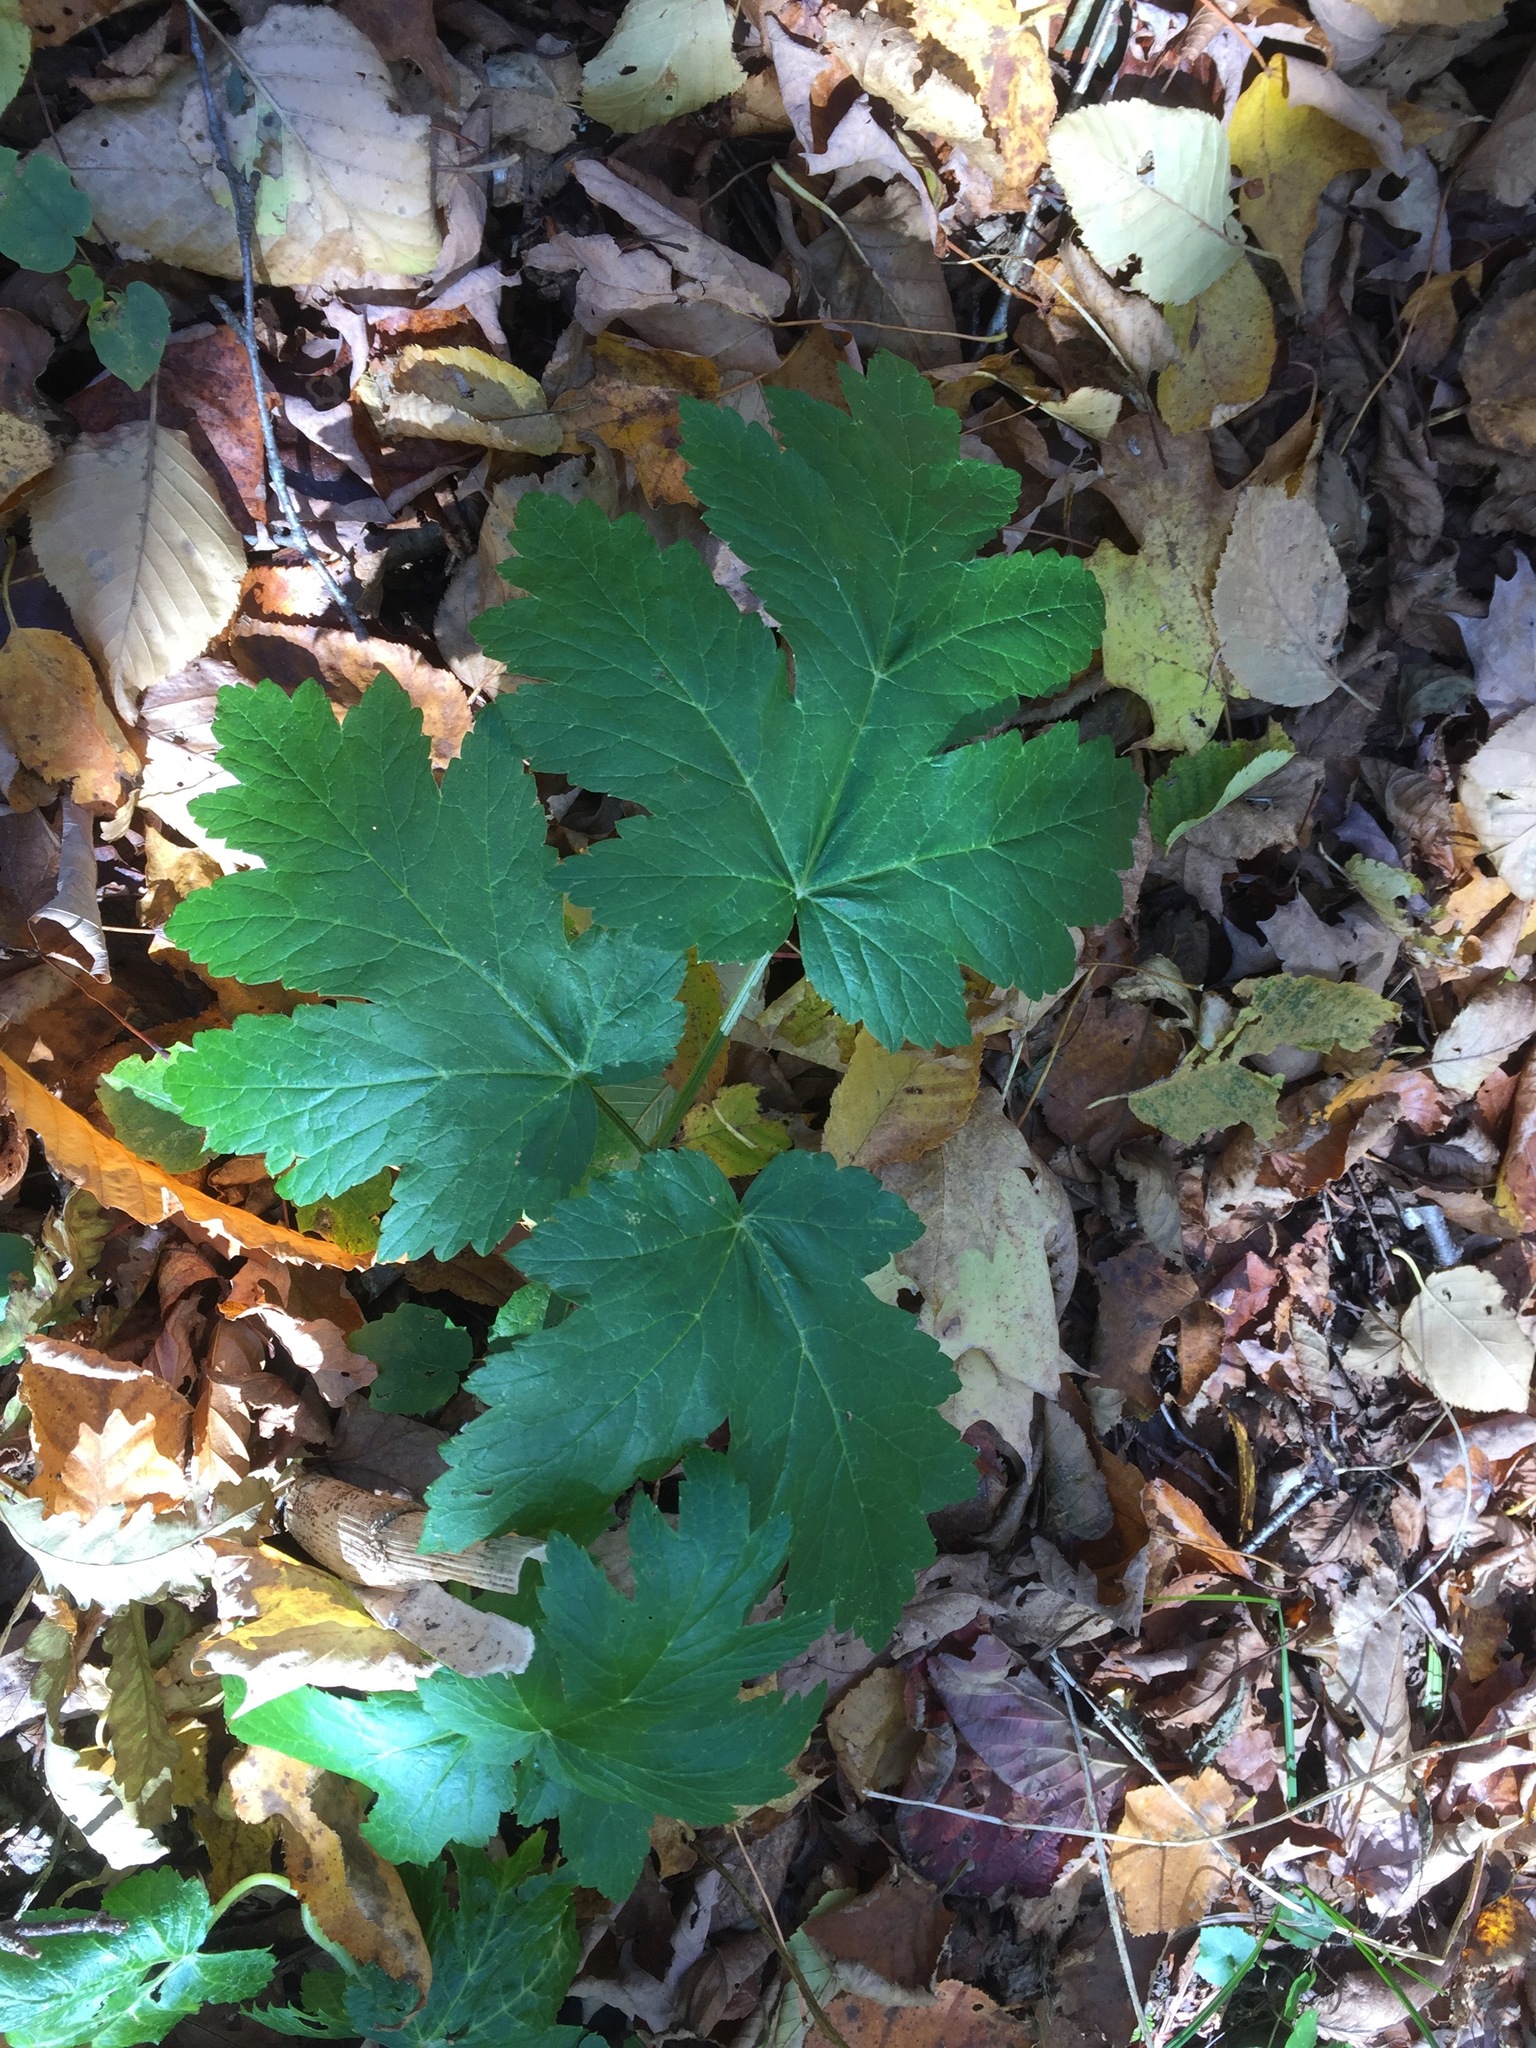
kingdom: Plantae
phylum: Tracheophyta
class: Magnoliopsida
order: Apiales
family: Apiaceae
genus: Heracleum
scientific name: Heracleum maximum
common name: American cow parsnip
